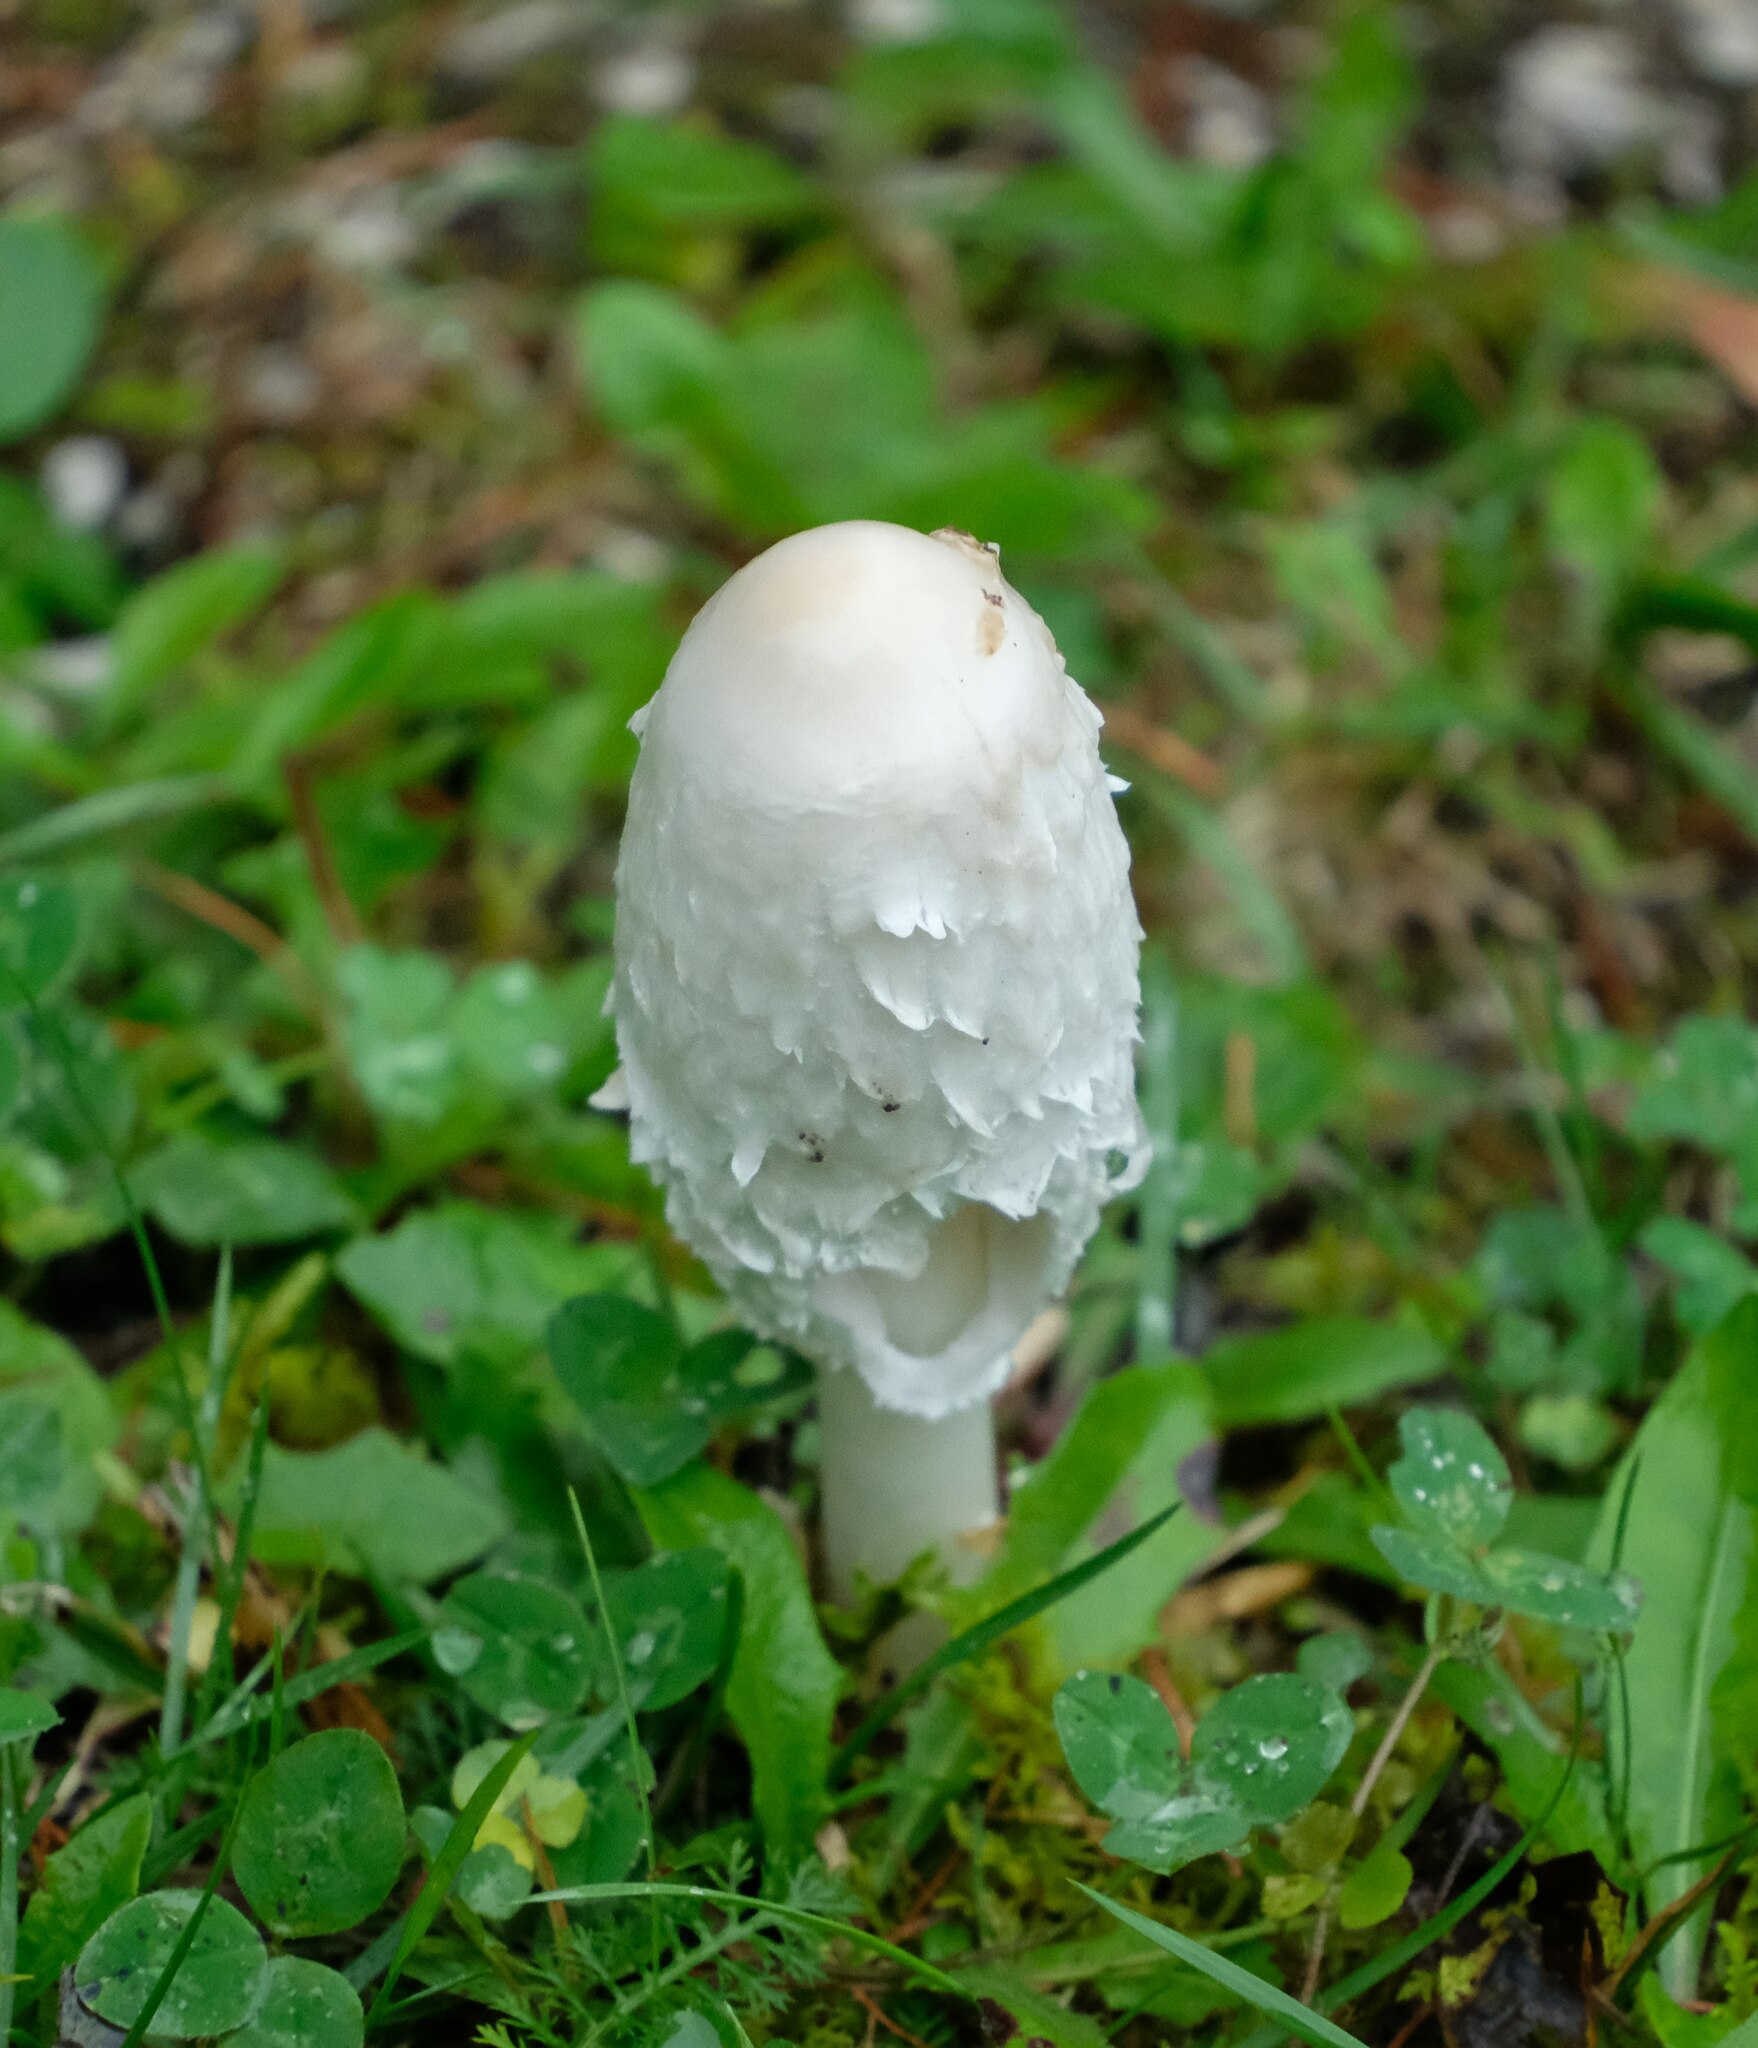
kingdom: Fungi
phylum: Basidiomycota
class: Agaricomycetes
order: Agaricales
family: Agaricaceae
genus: Coprinus
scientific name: Coprinus comatus
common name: Lawyer's wig
